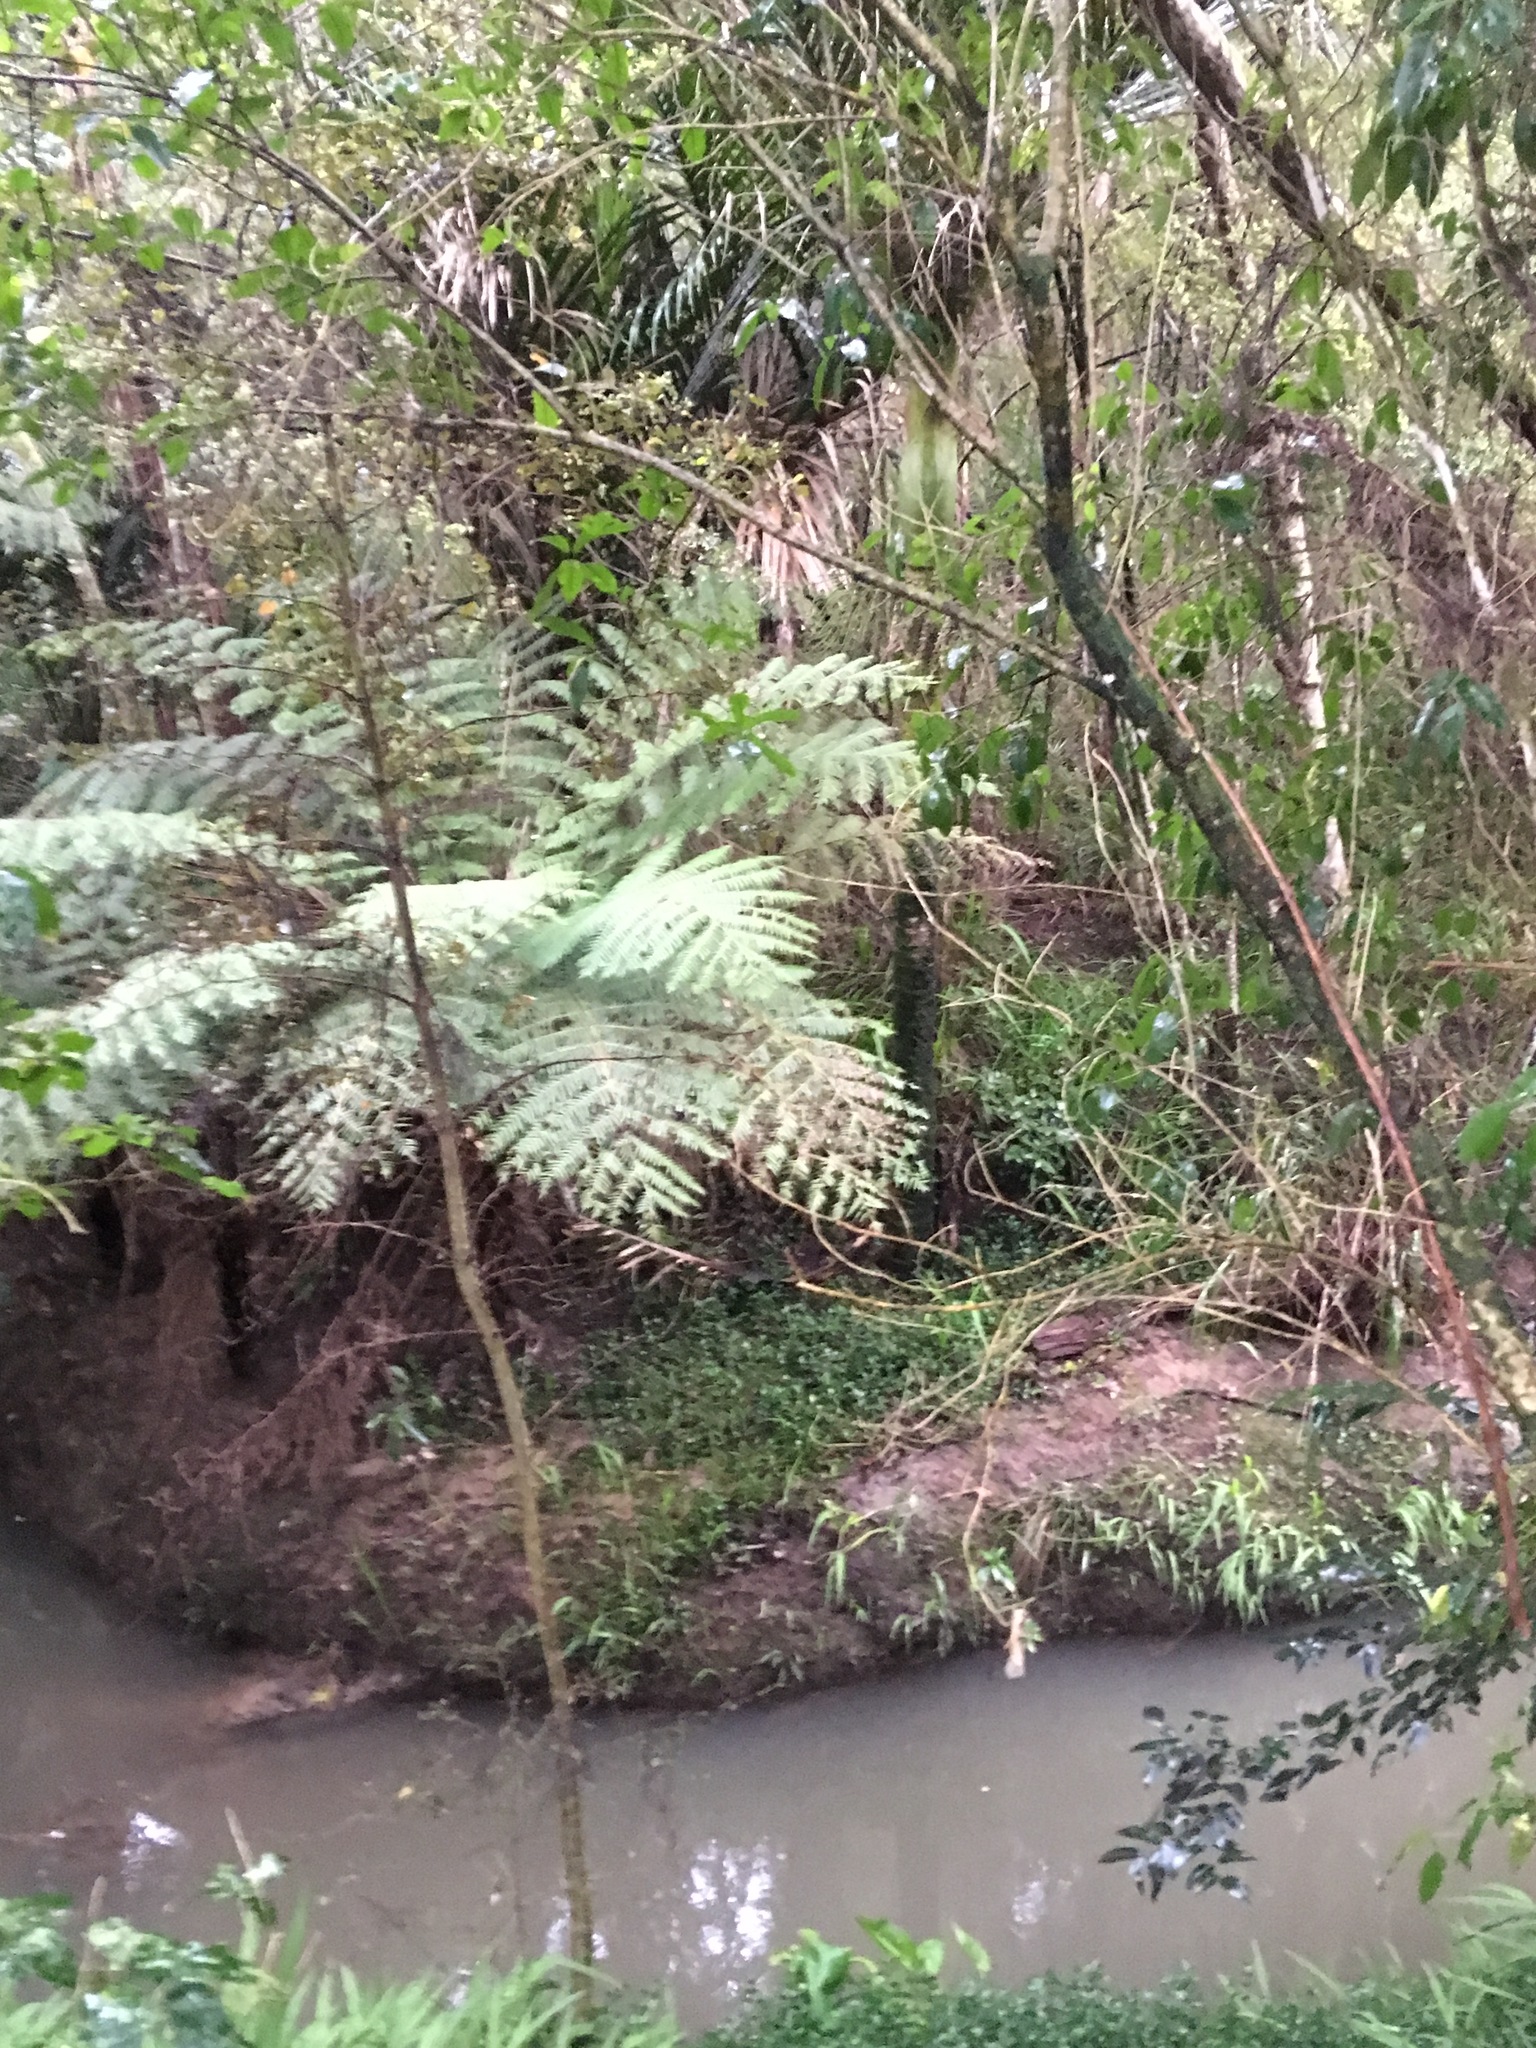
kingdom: Plantae
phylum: Tracheophyta
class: Liliopsida
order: Asparagales
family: Iridaceae
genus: Crocosmia
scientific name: Crocosmia crocosmiiflora
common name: Montbretia
